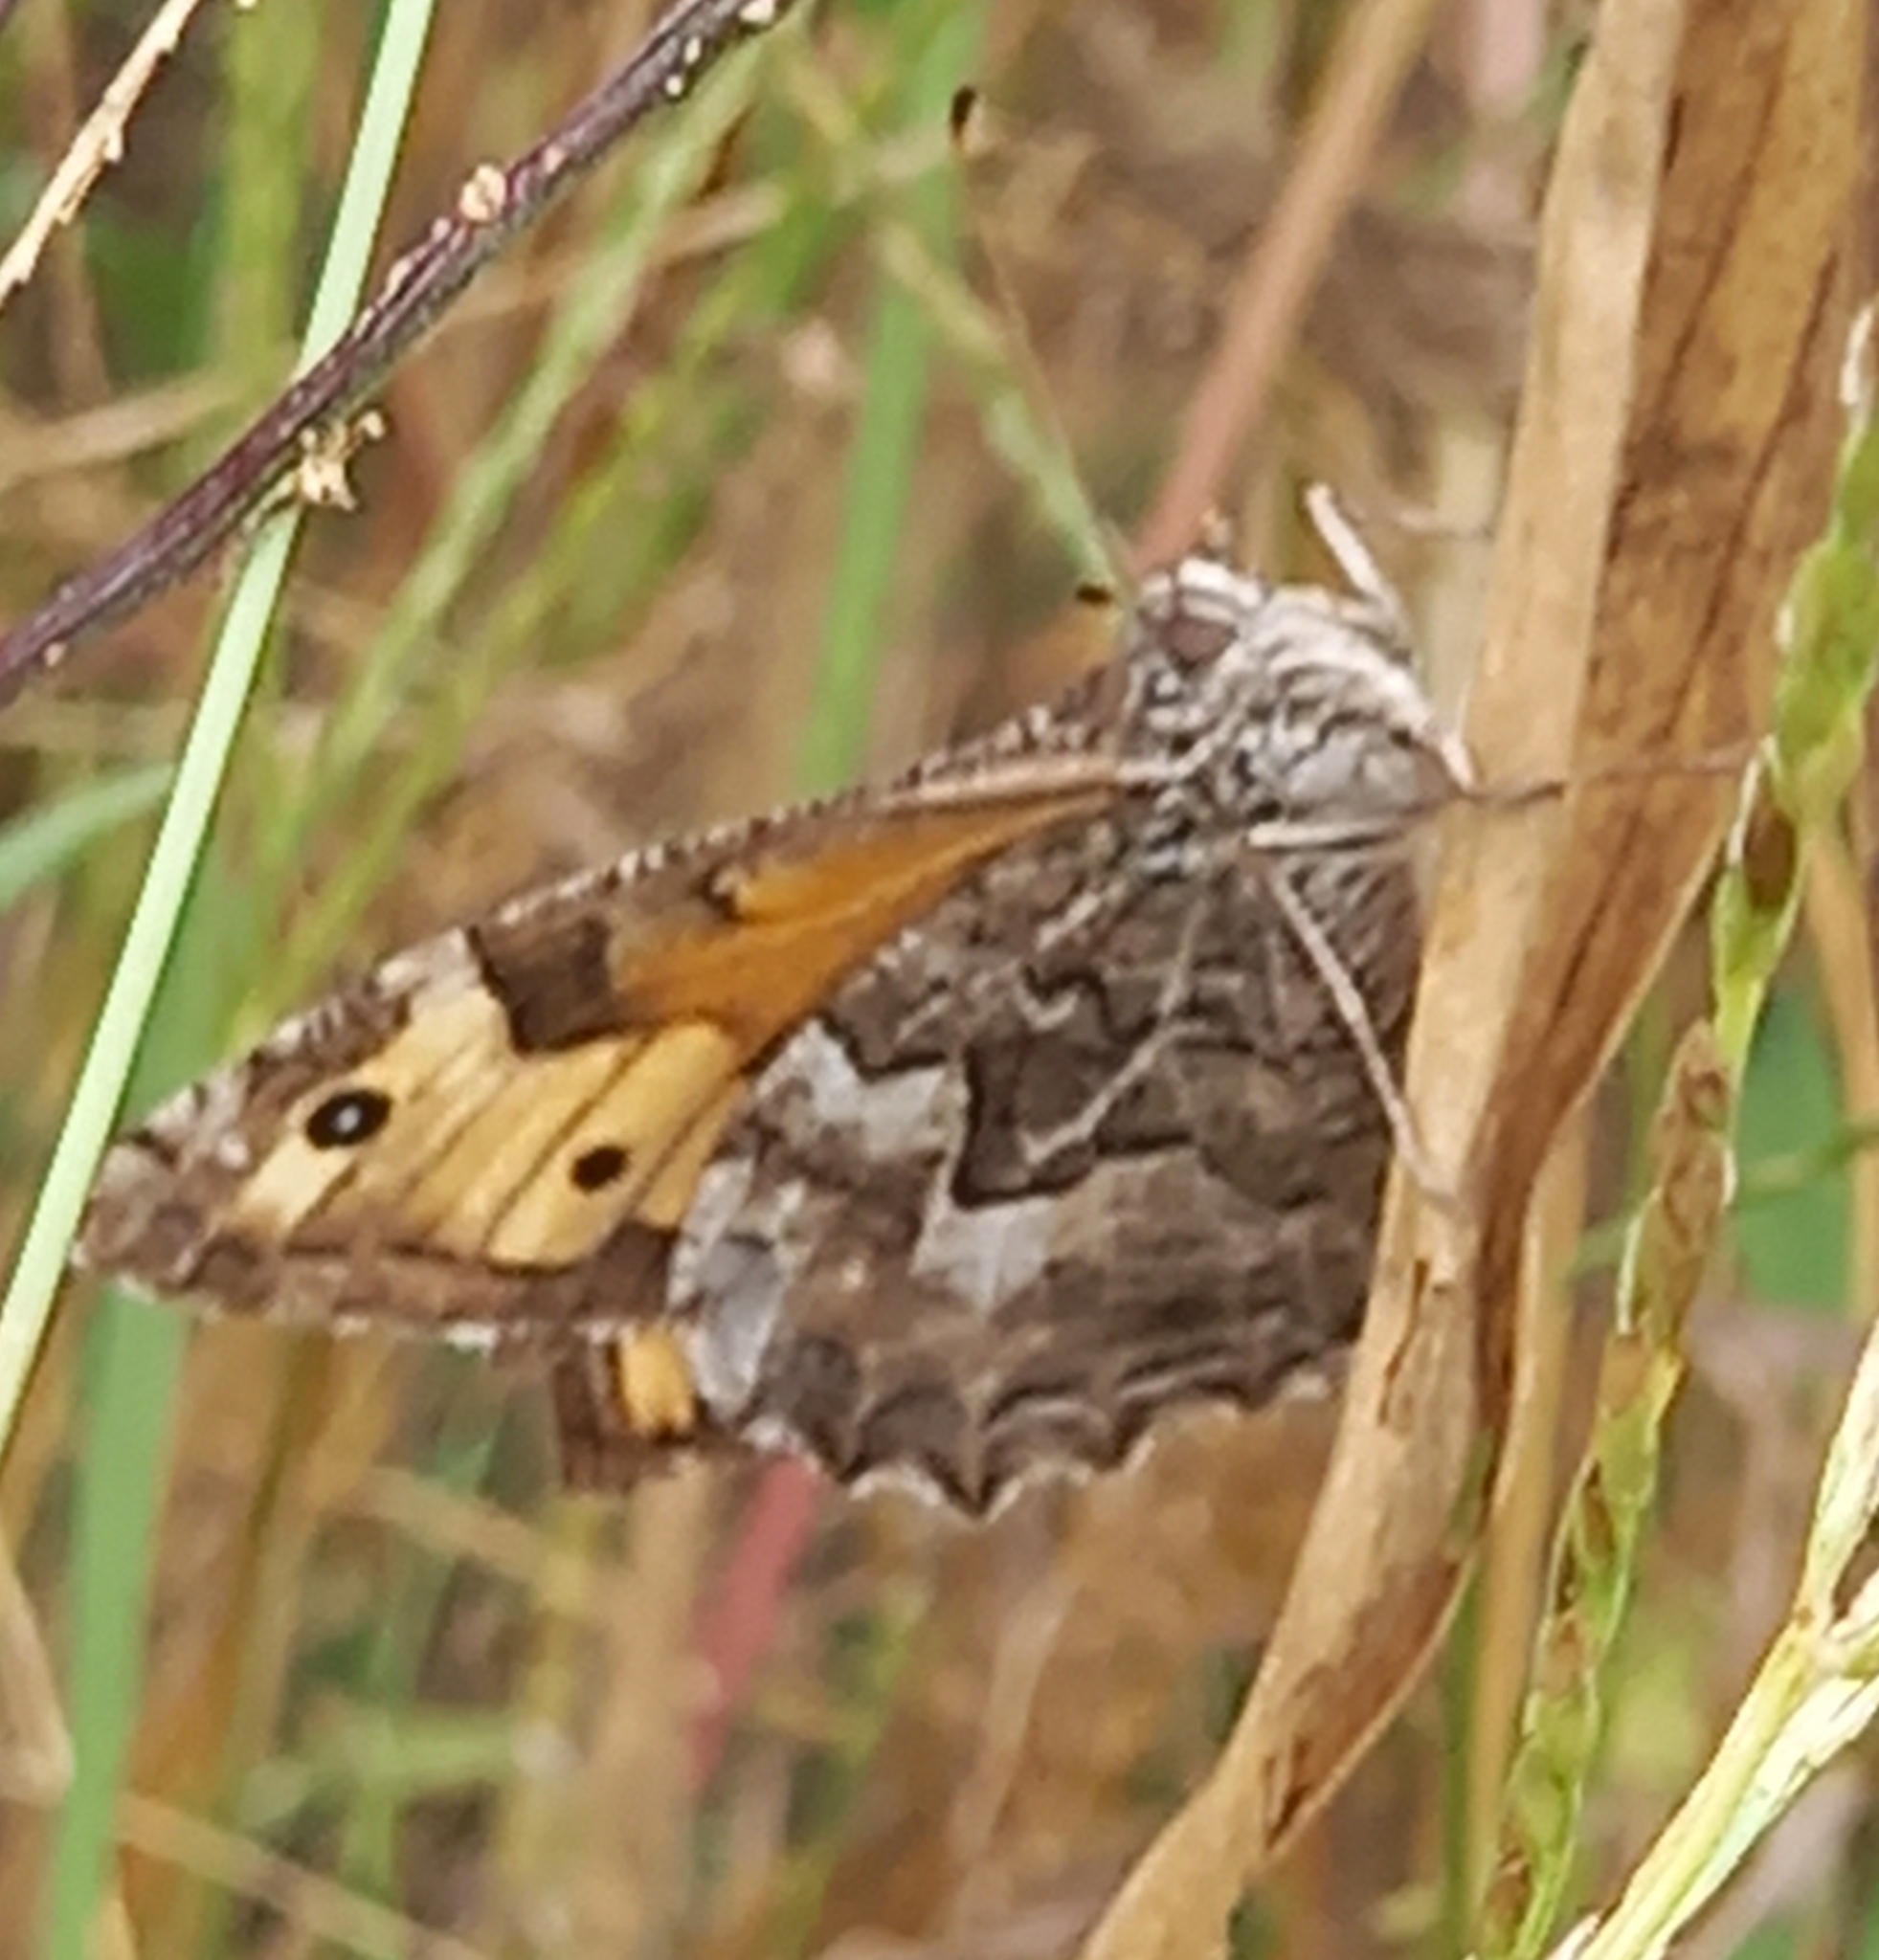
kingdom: Animalia
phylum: Arthropoda
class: Insecta
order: Lepidoptera
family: Nymphalidae
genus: Hipparchia
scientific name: Hipparchia semele
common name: Grayling
